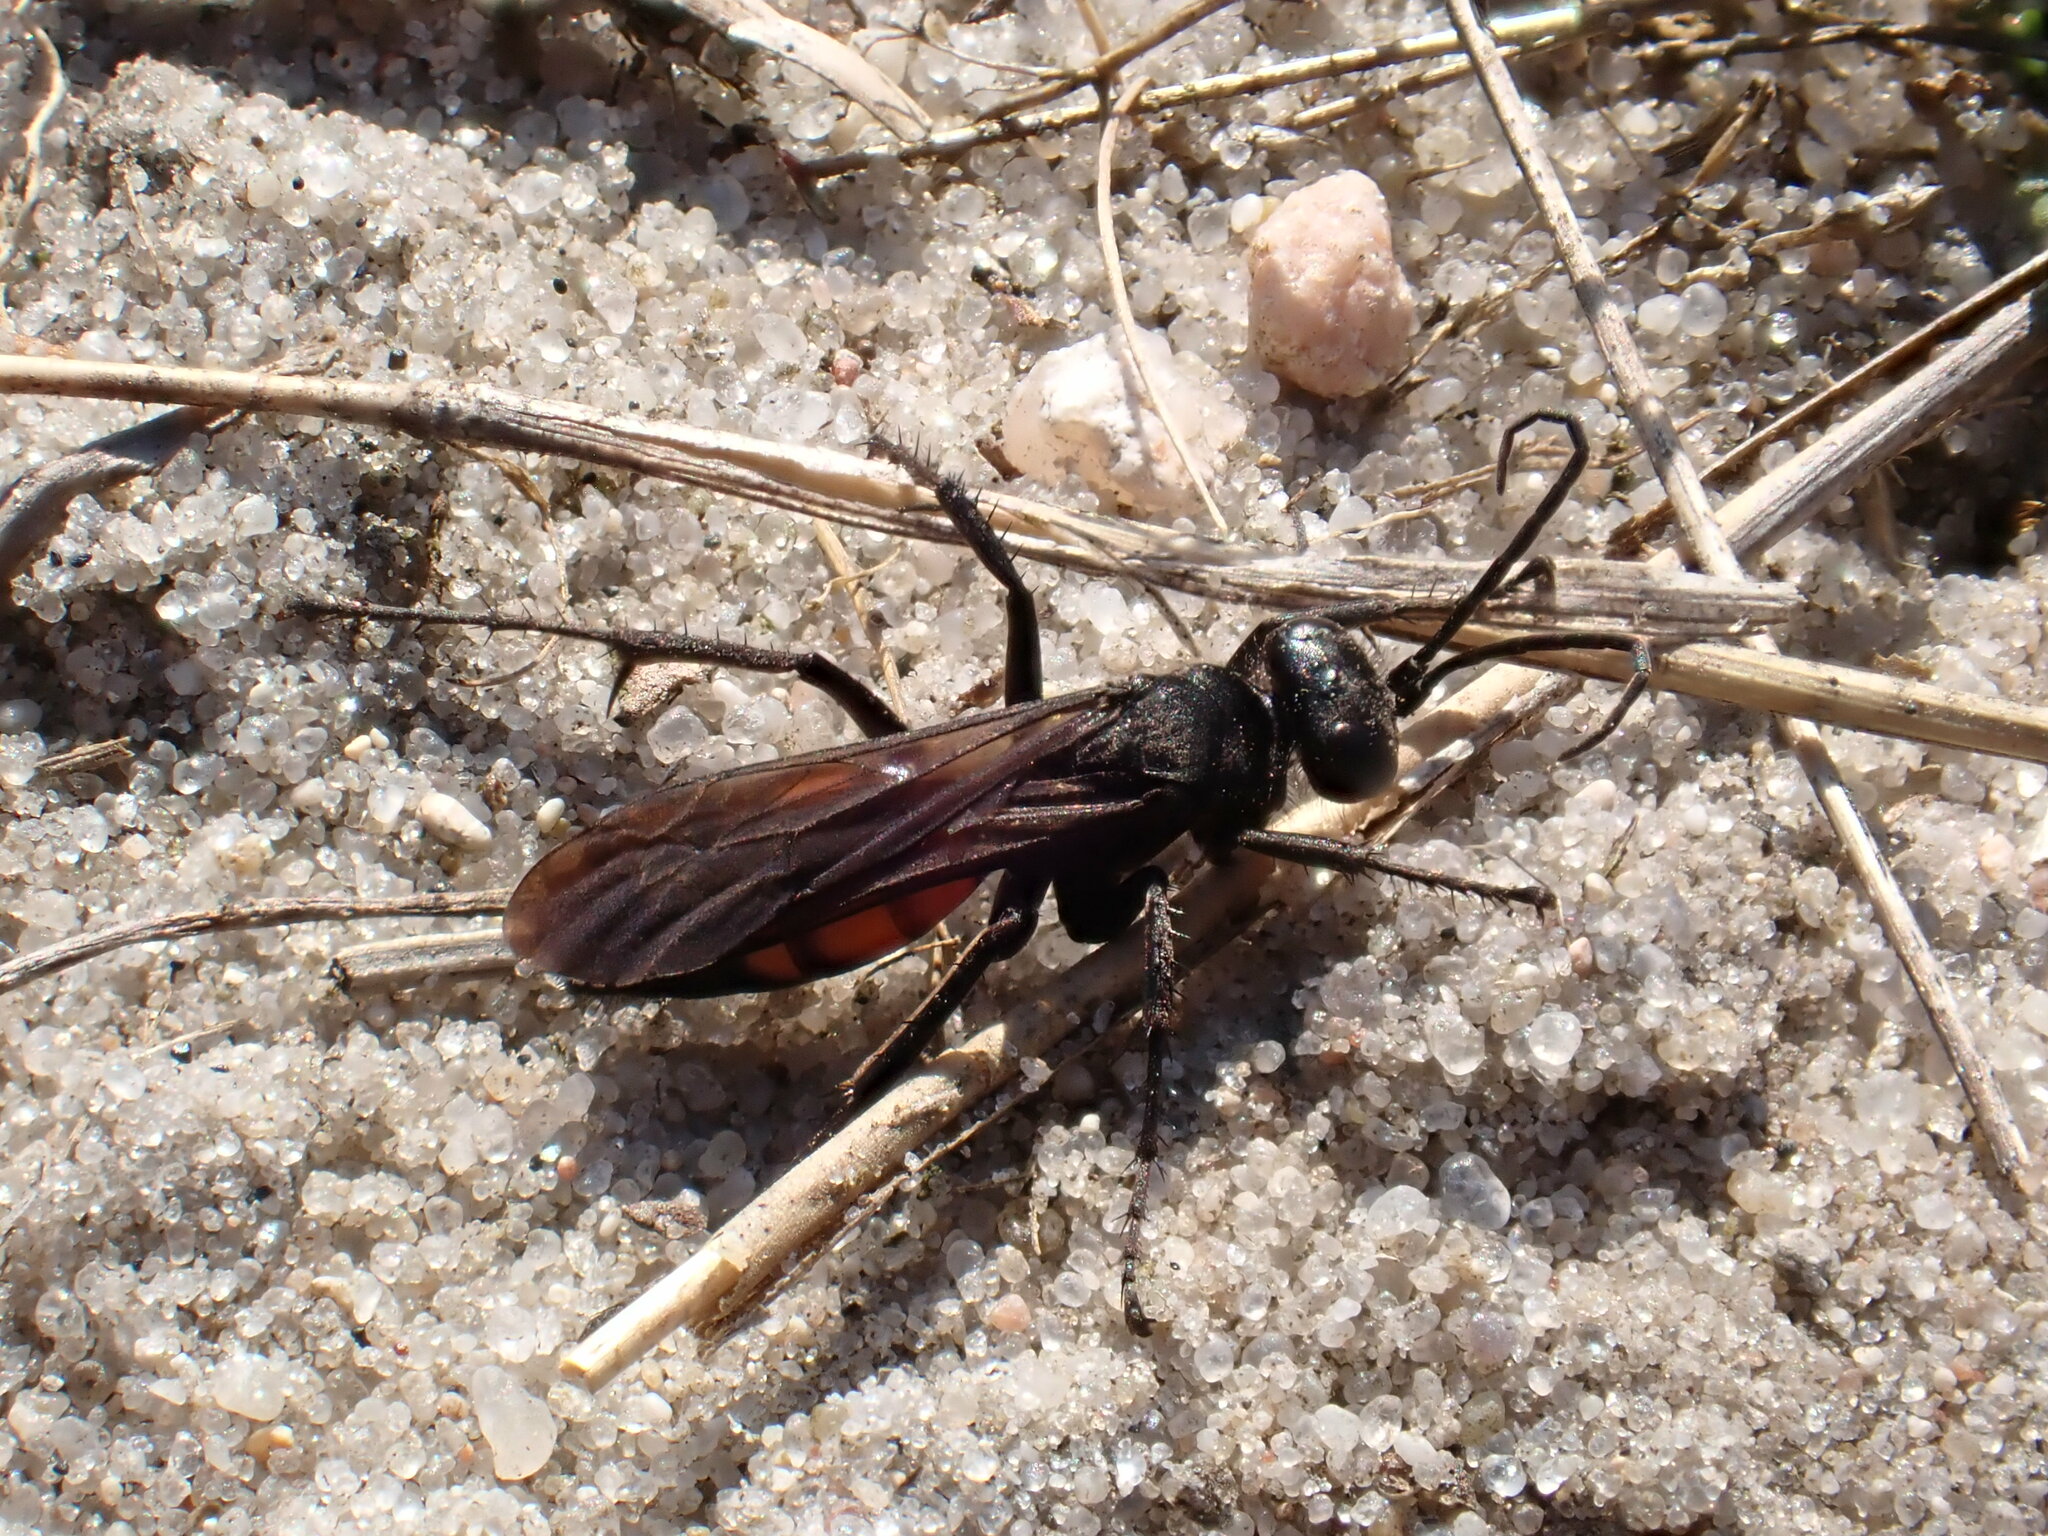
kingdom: Animalia
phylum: Arthropoda
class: Insecta
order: Hymenoptera
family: Pompilidae
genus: Anoplius
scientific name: Anoplius viaticus
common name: Black banded spider wasp
